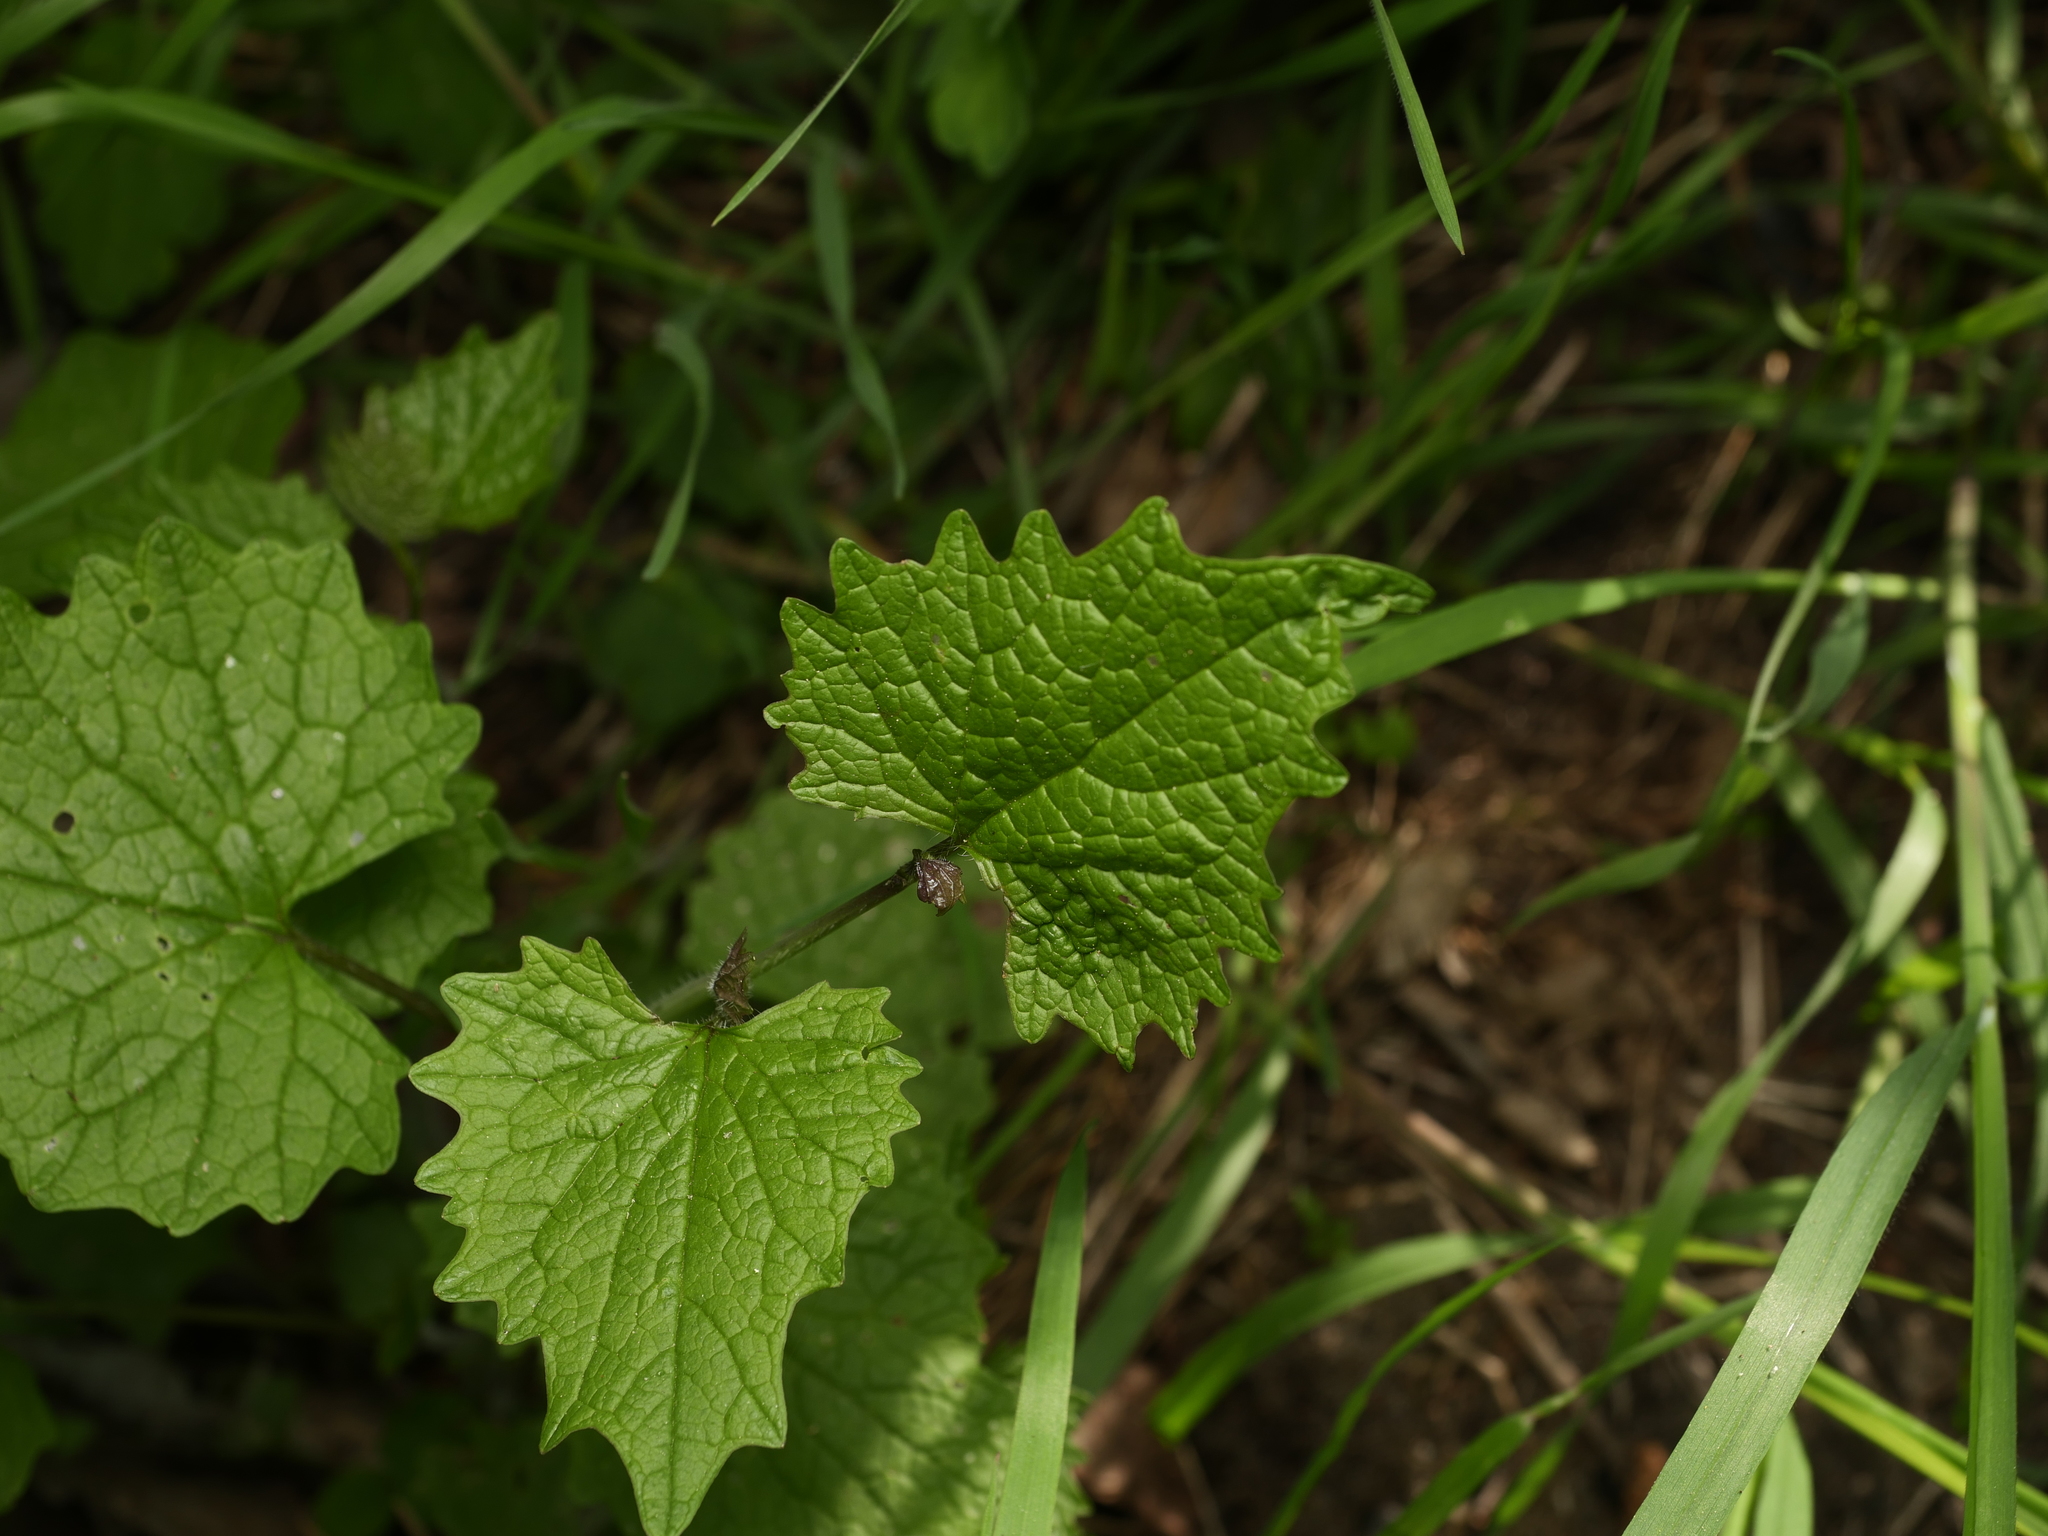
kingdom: Plantae
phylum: Tracheophyta
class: Magnoliopsida
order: Brassicales
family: Brassicaceae
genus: Alliaria
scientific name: Alliaria petiolata
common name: Garlic mustard
